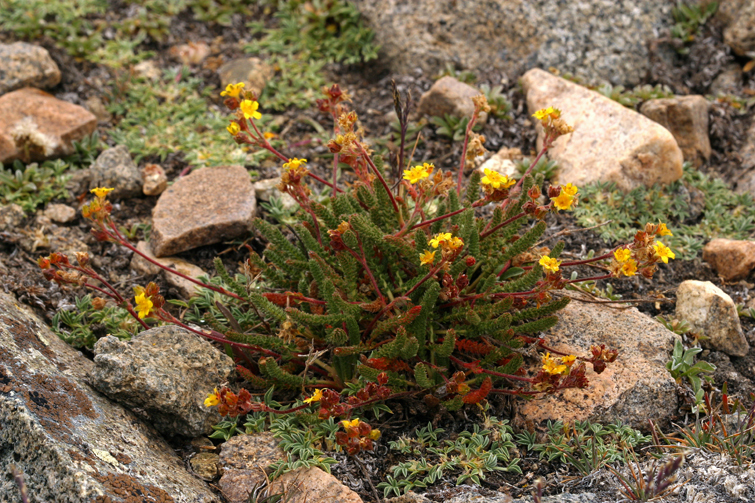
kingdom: Plantae
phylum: Tracheophyta
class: Magnoliopsida
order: Rosales
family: Rosaceae
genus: Potentilla
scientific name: Potentilla lycopodioides
